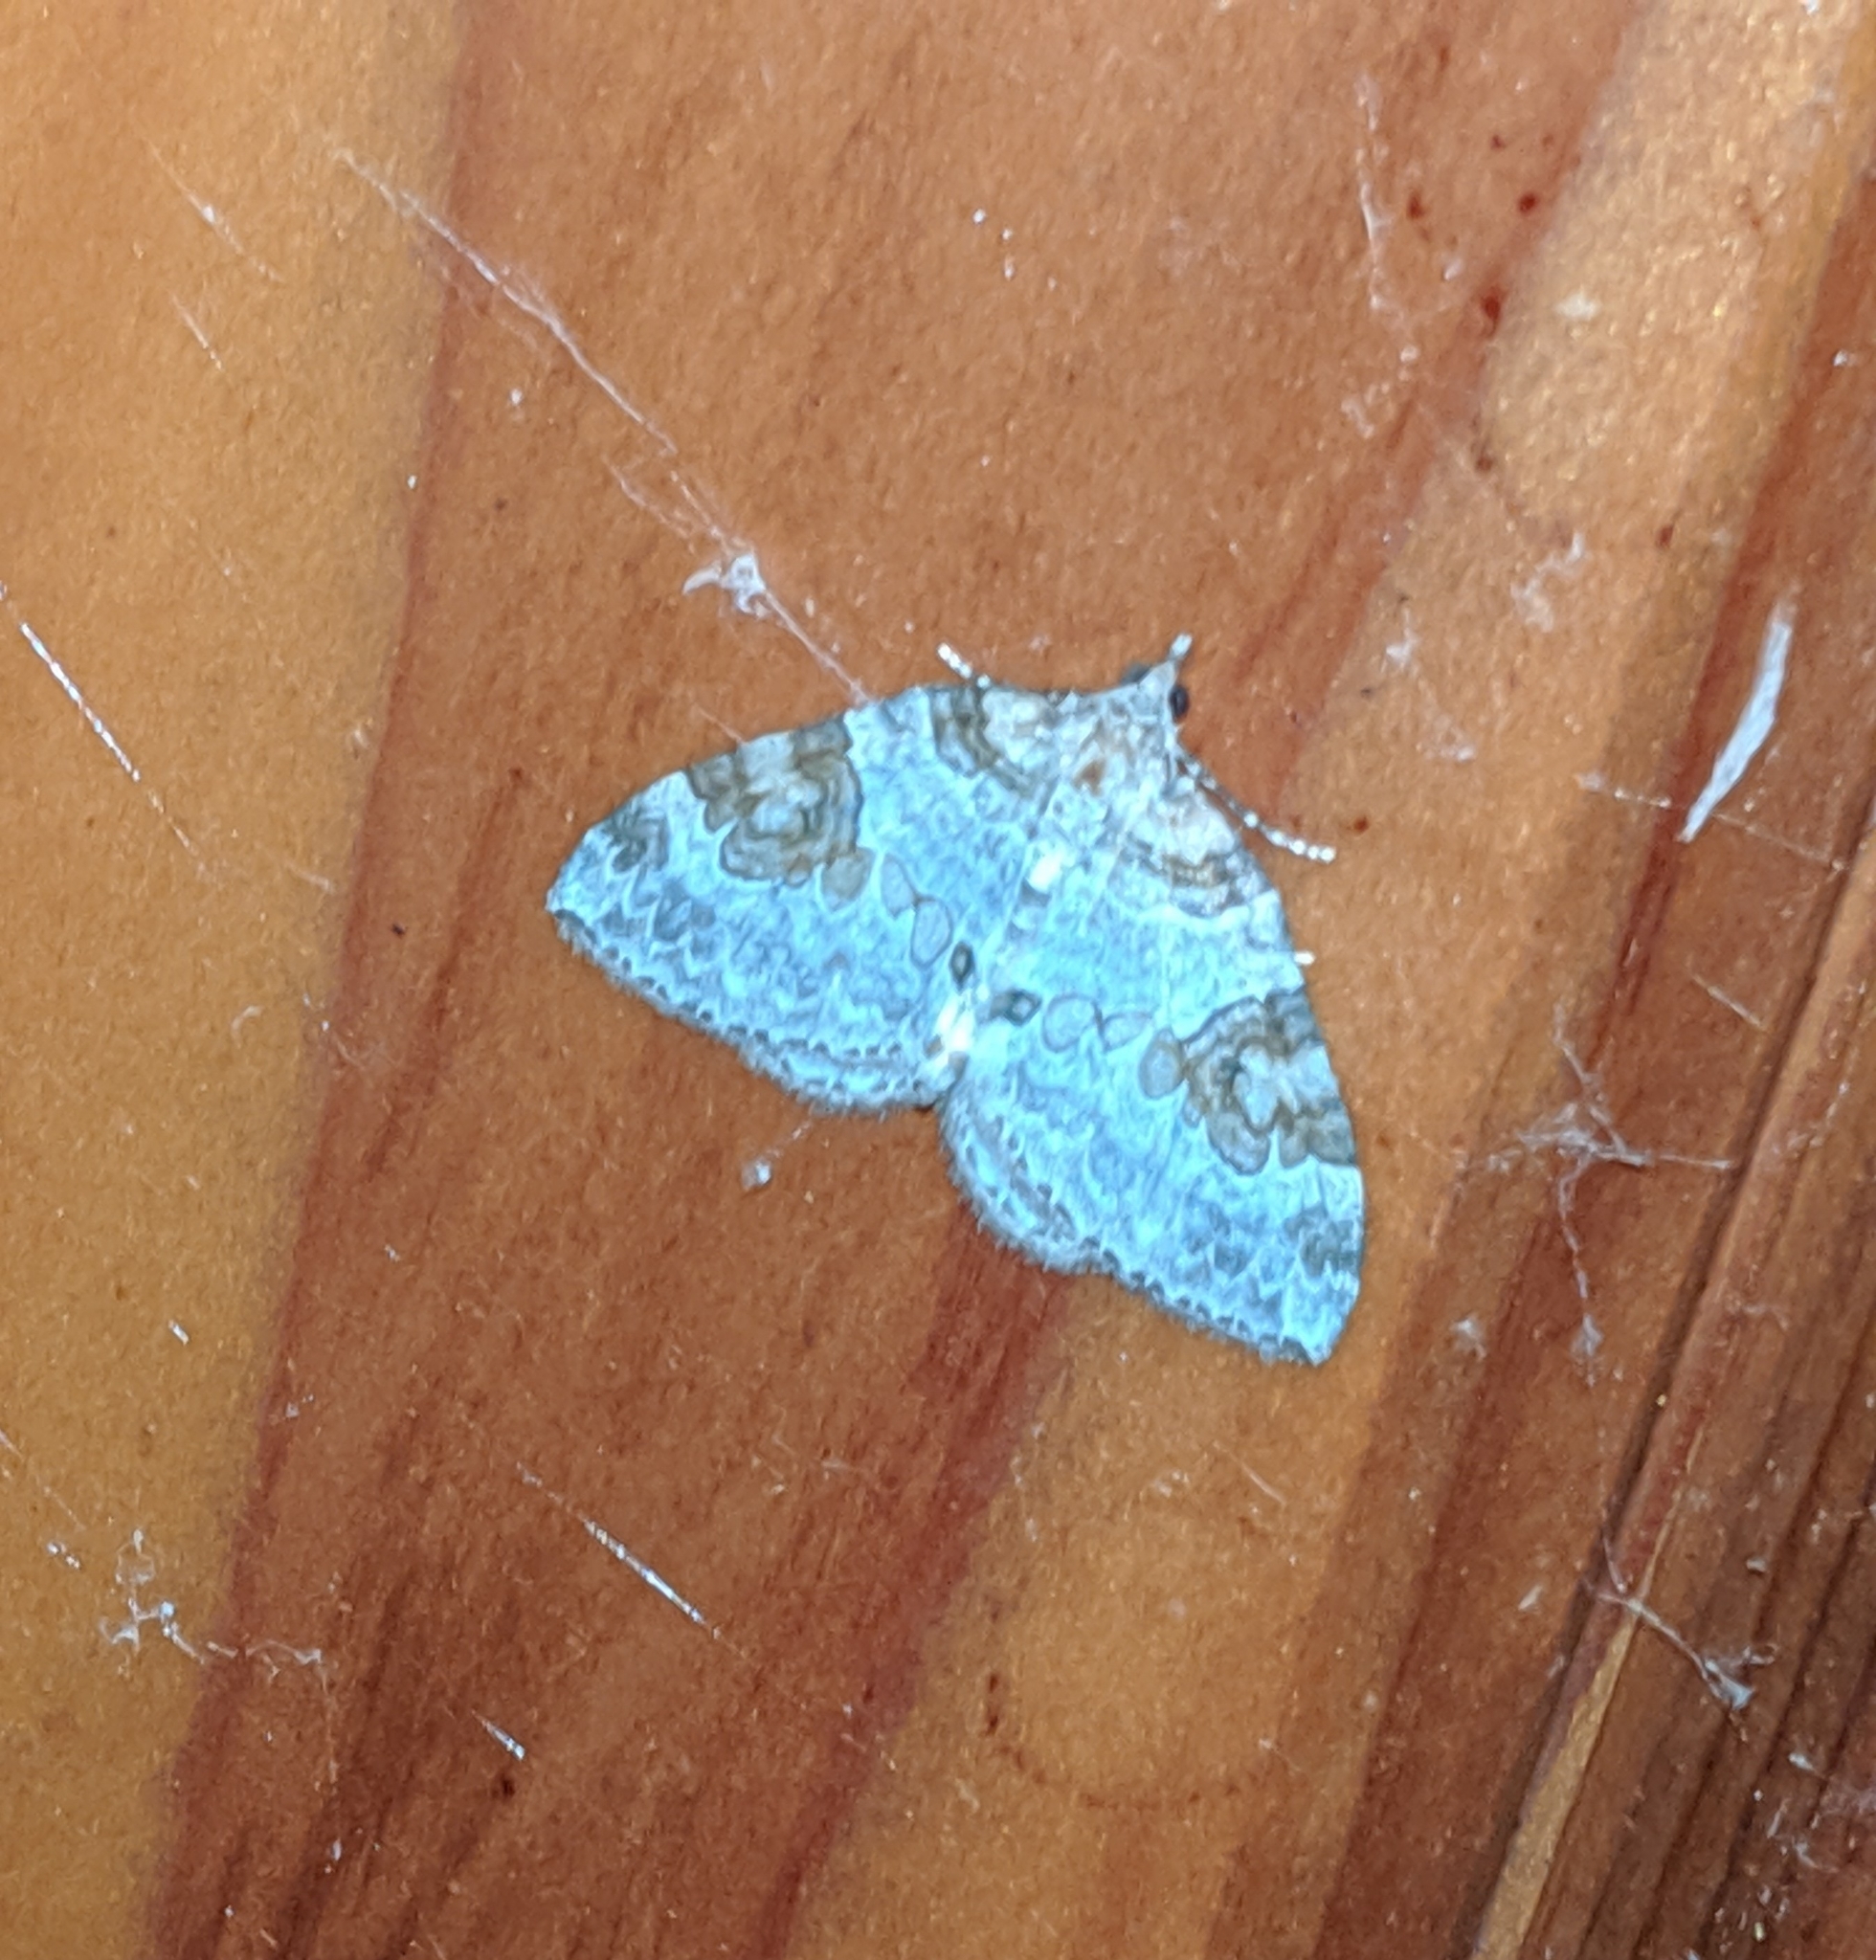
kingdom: Animalia
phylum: Arthropoda
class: Insecta
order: Lepidoptera
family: Geometridae
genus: Plemyria
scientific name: Plemyria georgii
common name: George's carpet moth
